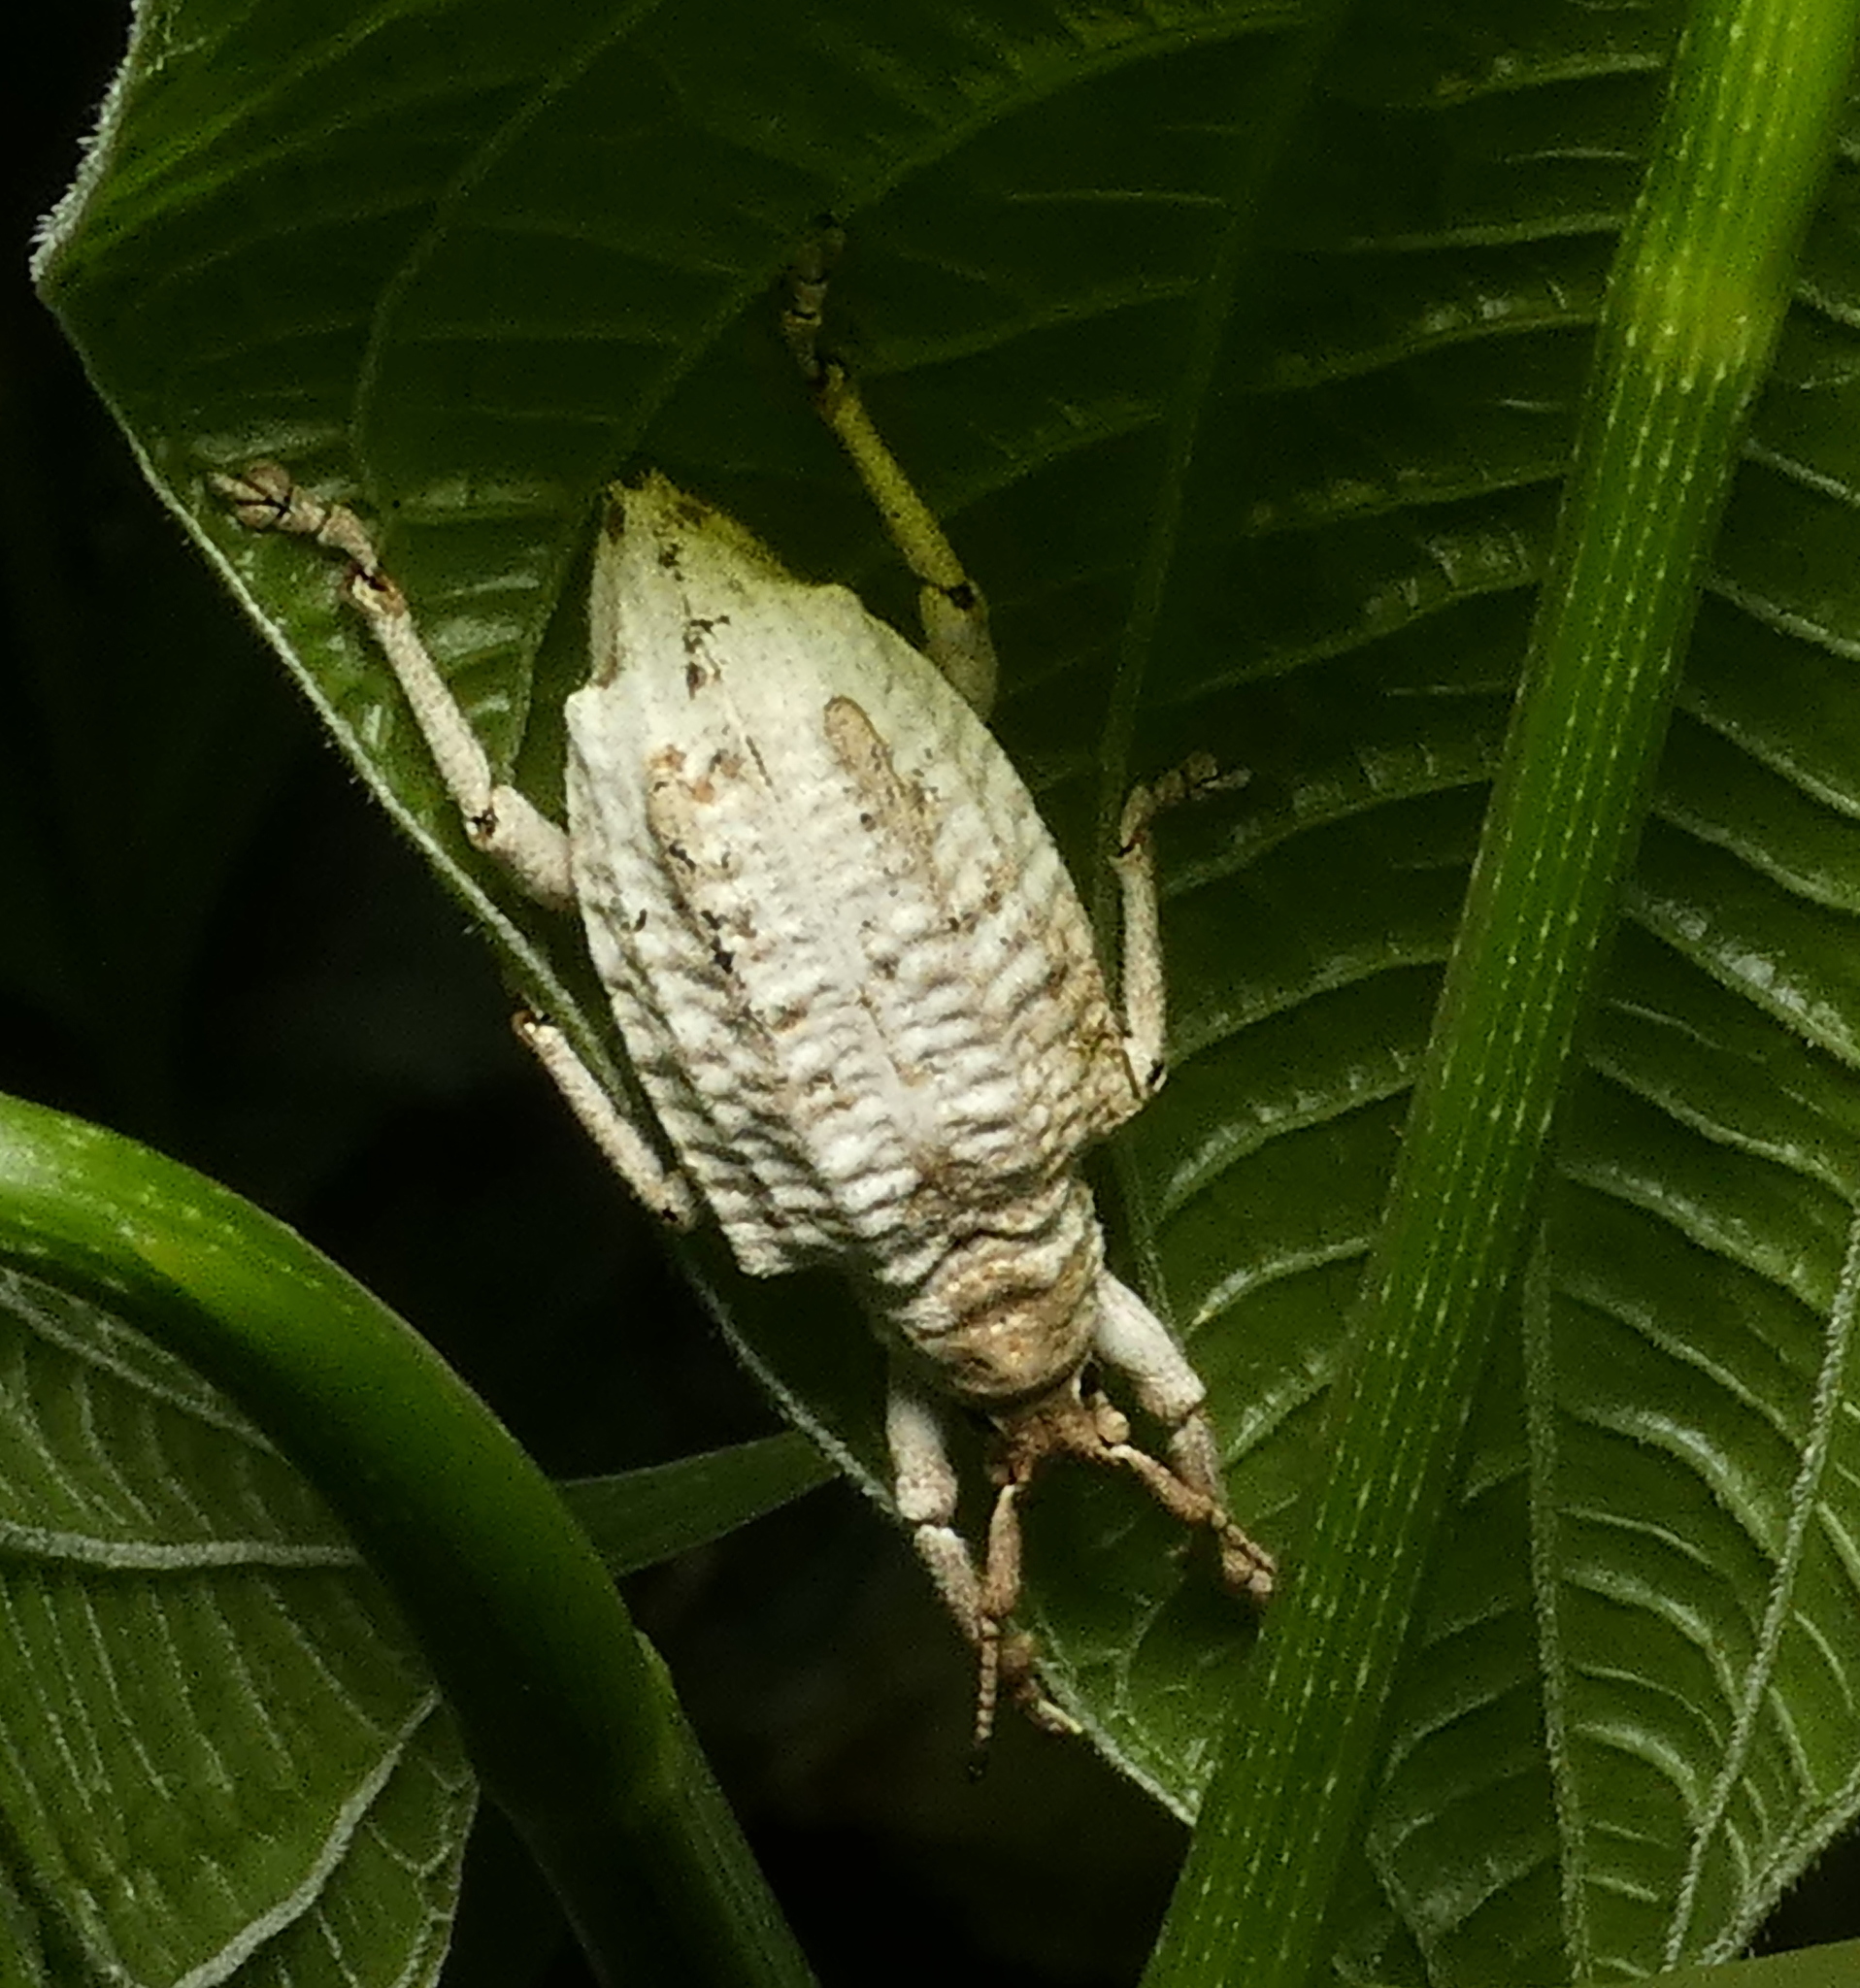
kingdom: Animalia
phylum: Arthropoda
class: Insecta
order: Coleoptera
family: Curculionidae
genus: Compsus
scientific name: Compsus niveus
